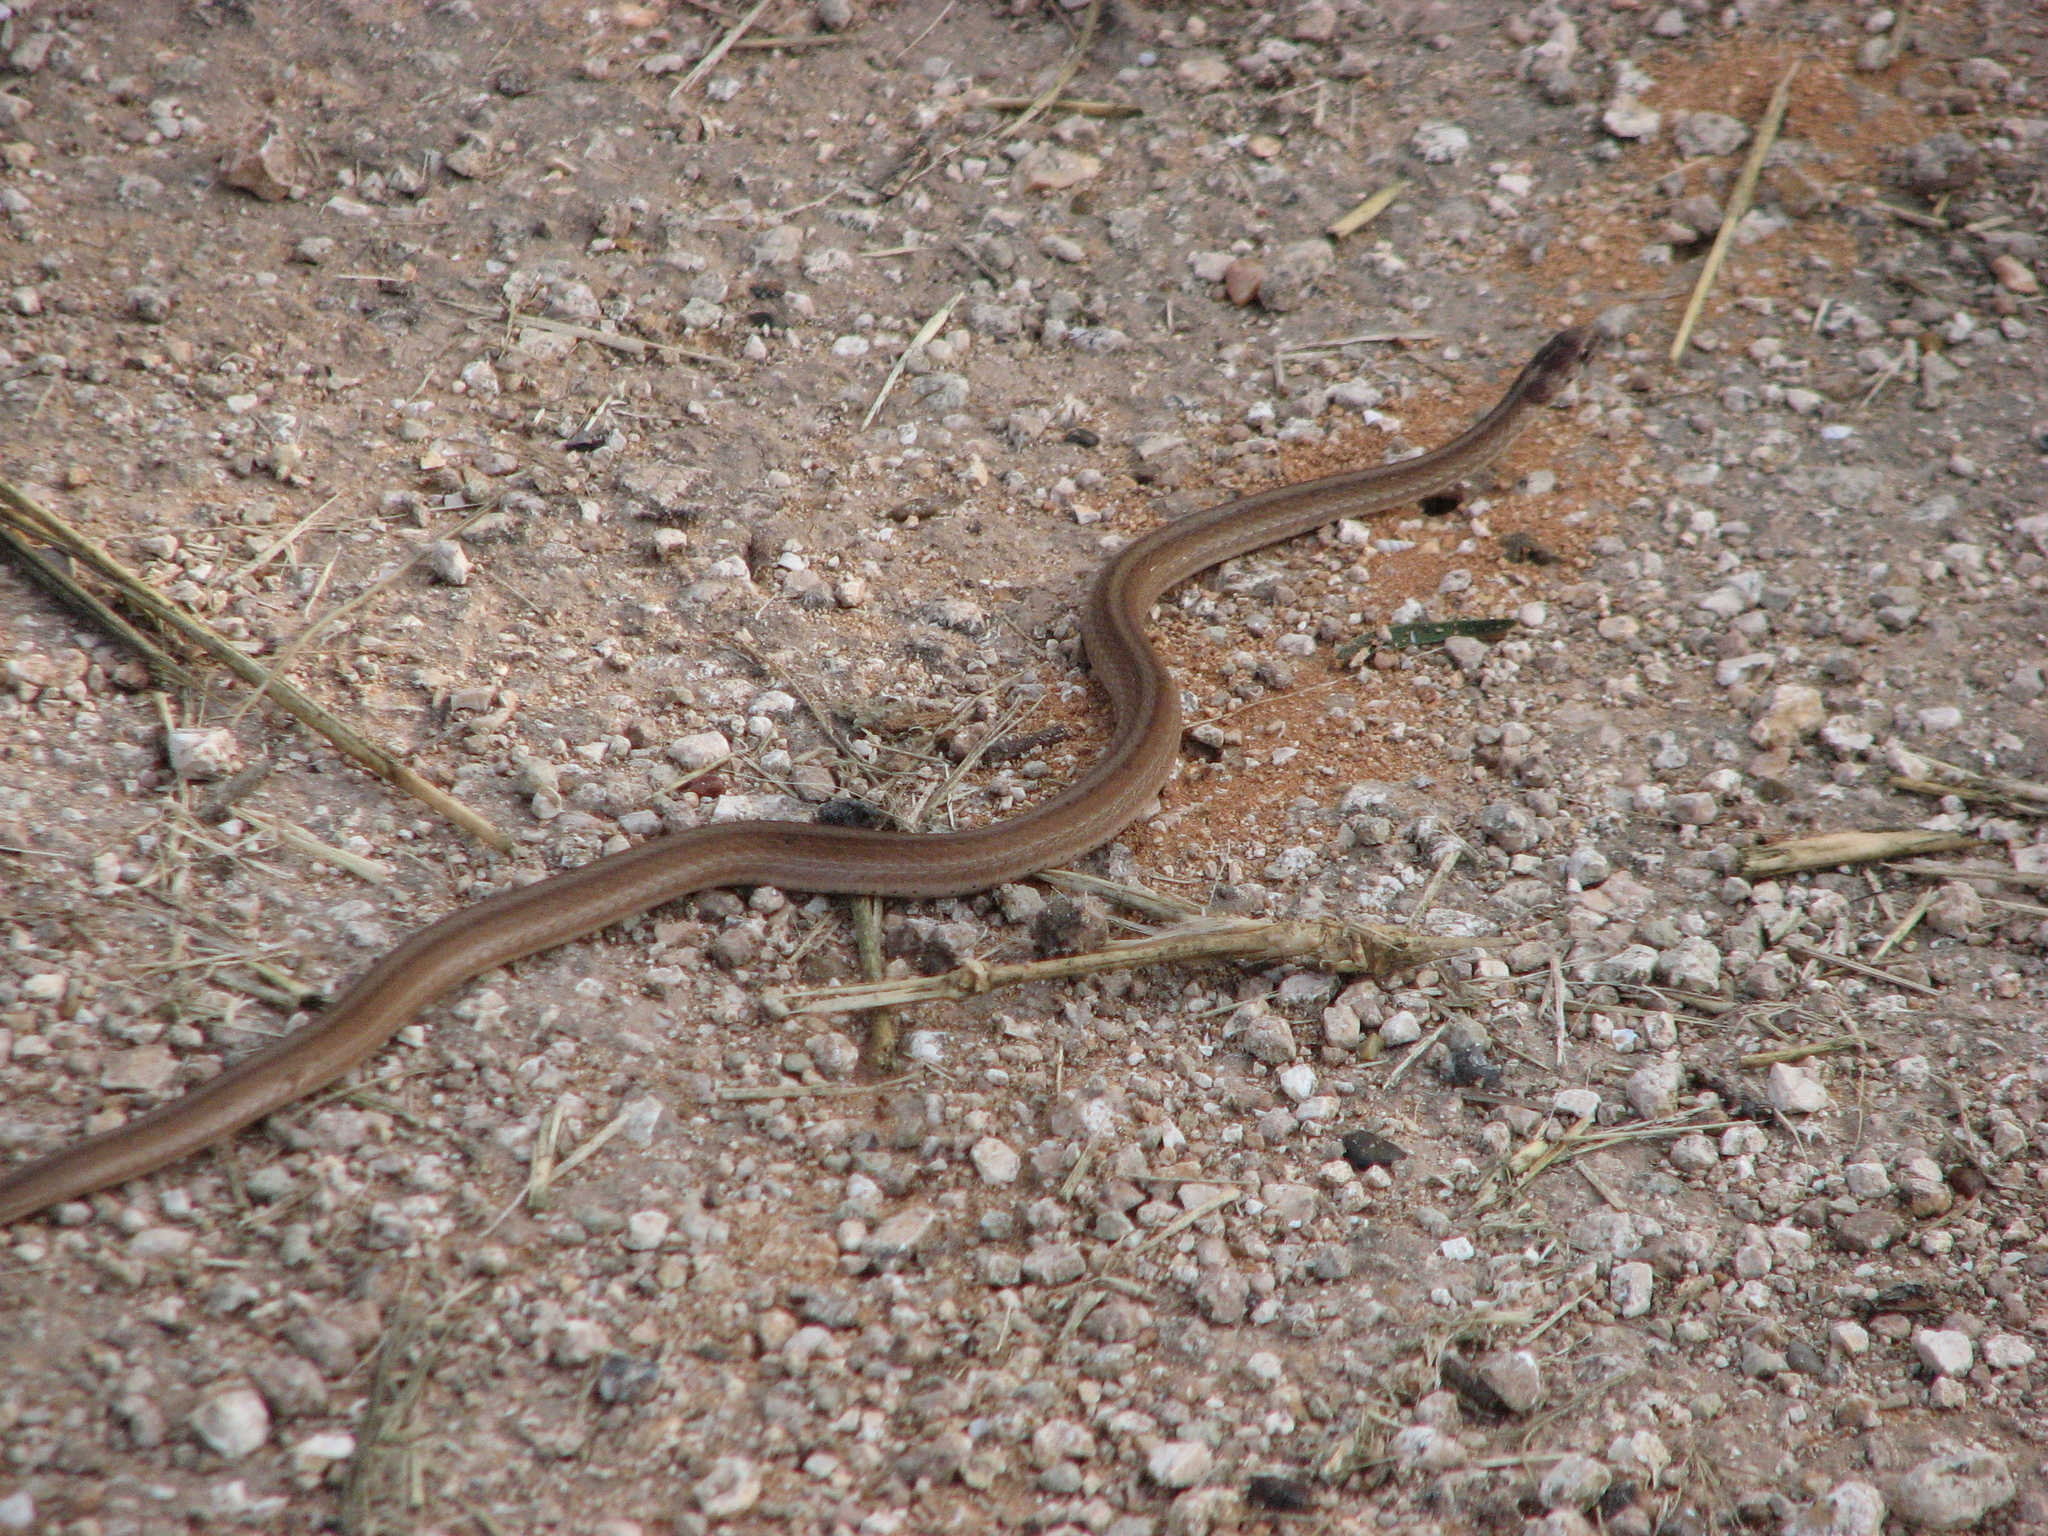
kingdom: Animalia
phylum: Chordata
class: Squamata
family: Colubridae
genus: Storeria
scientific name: Storeria dekayi
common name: (dekay’s) brown snake
